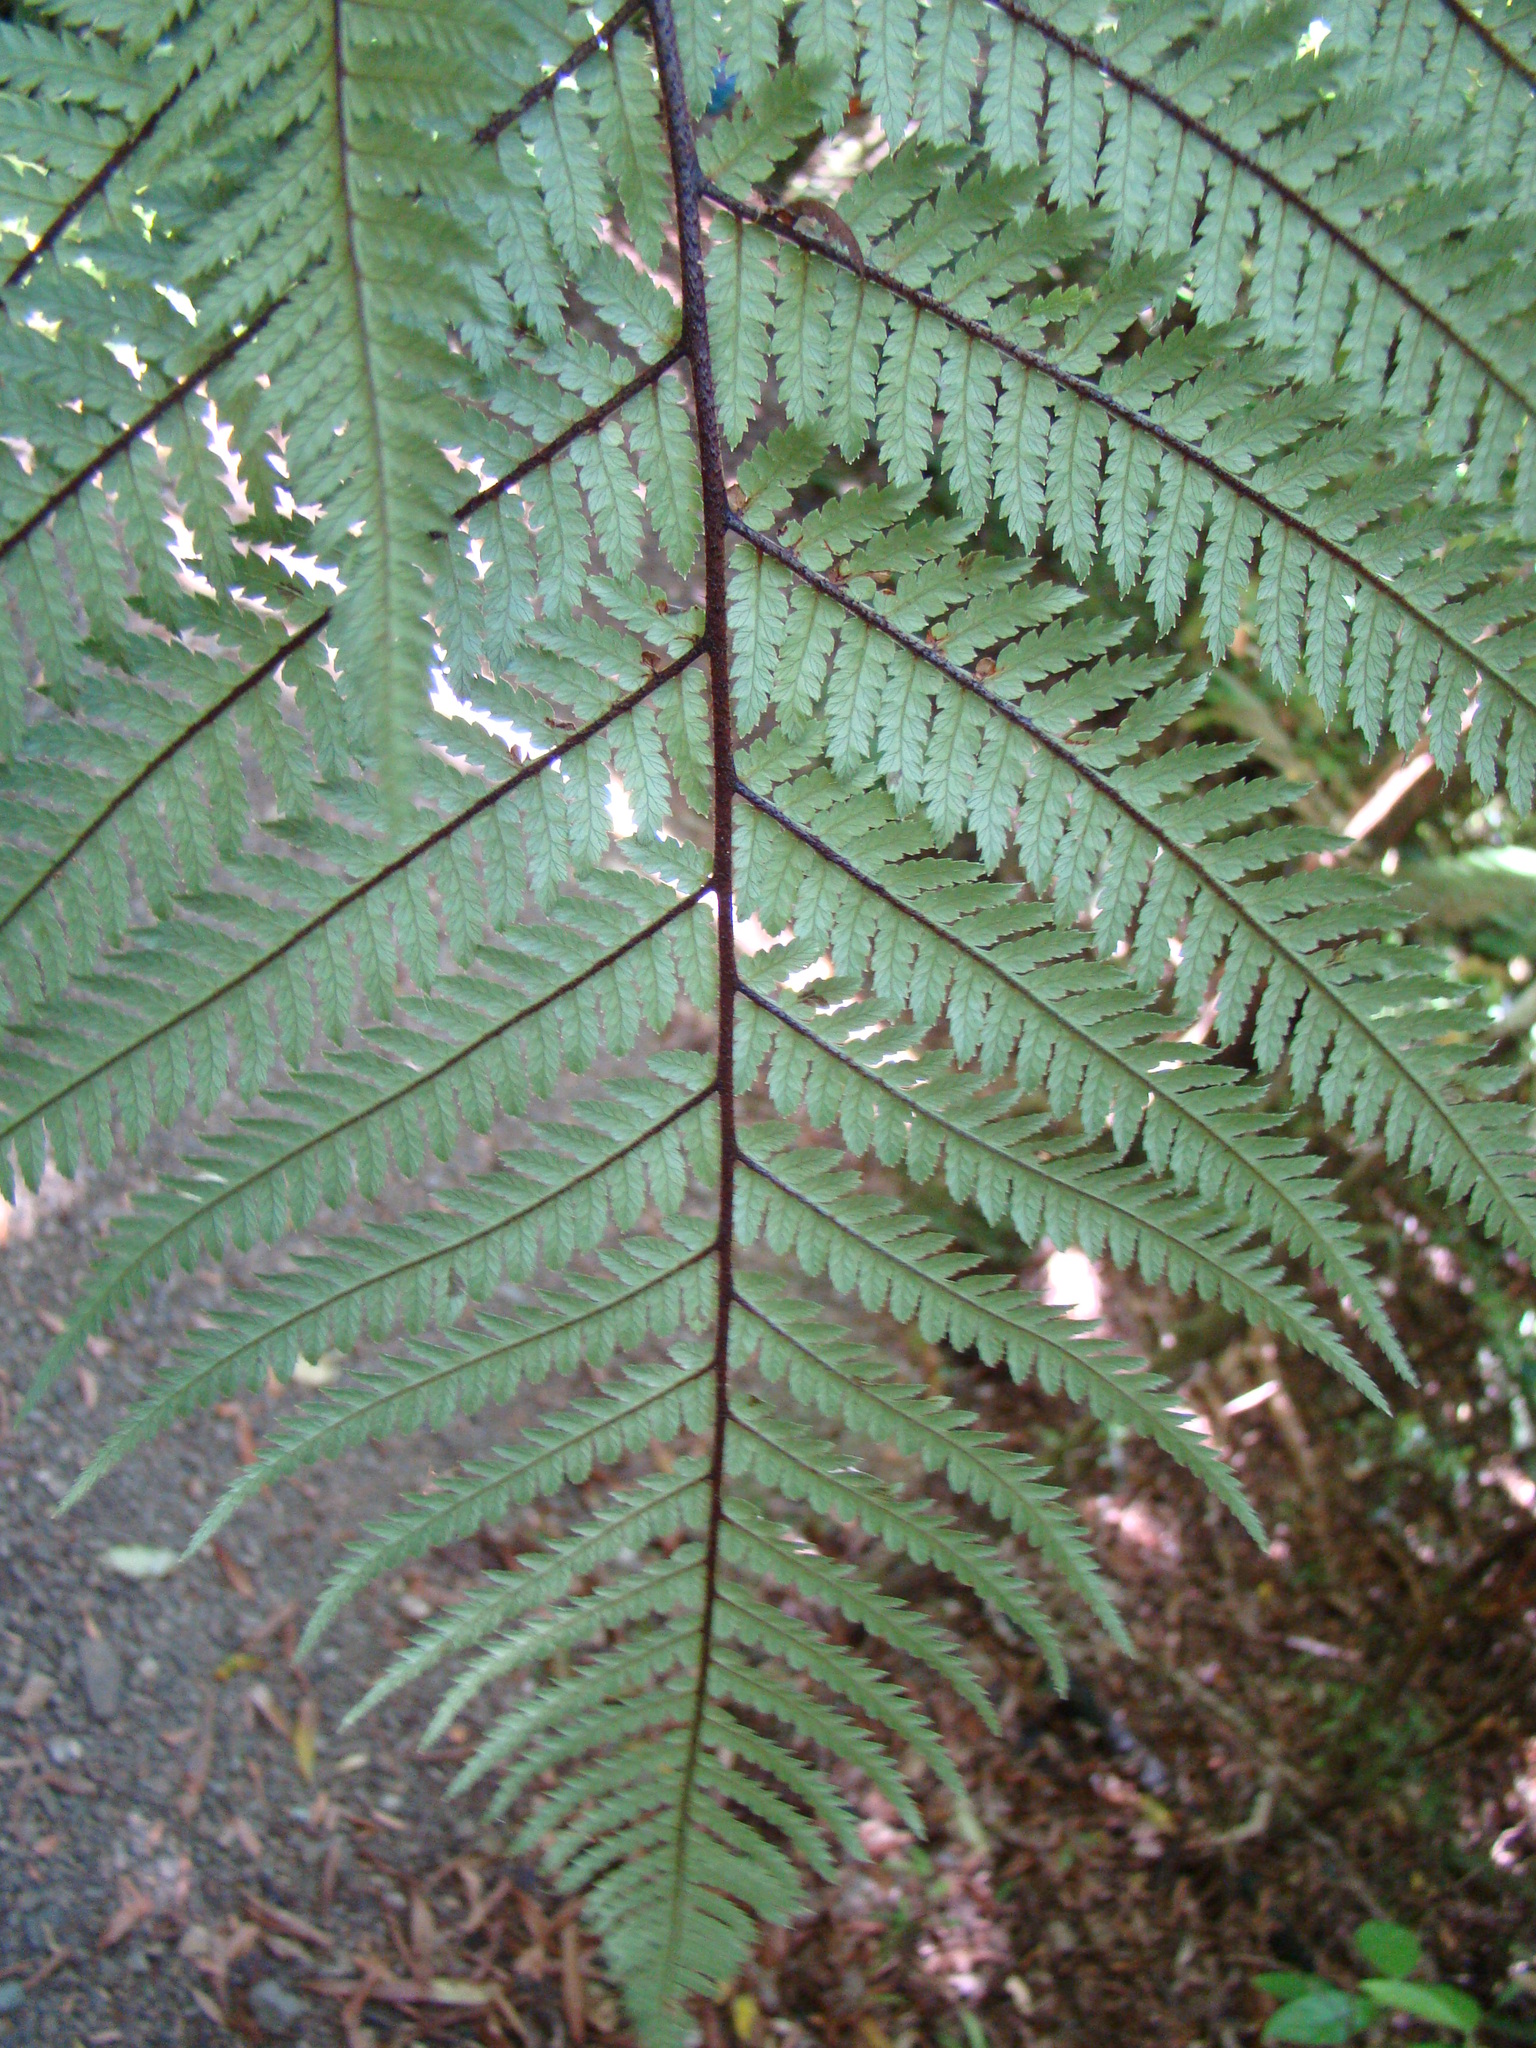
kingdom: Plantae
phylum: Tracheophyta
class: Polypodiopsida
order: Cyatheales
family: Dicksoniaceae
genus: Dicksonia
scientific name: Dicksonia squarrosa
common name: Hard treefern
